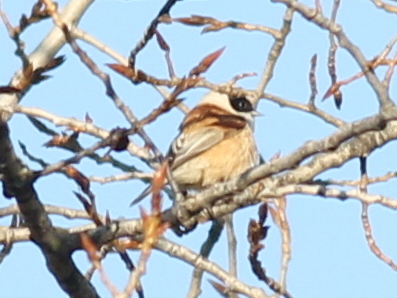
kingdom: Animalia
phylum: Chordata
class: Aves
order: Passeriformes
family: Remizidae
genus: Remiz
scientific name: Remiz pendulinus
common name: Eurasian penduline tit
